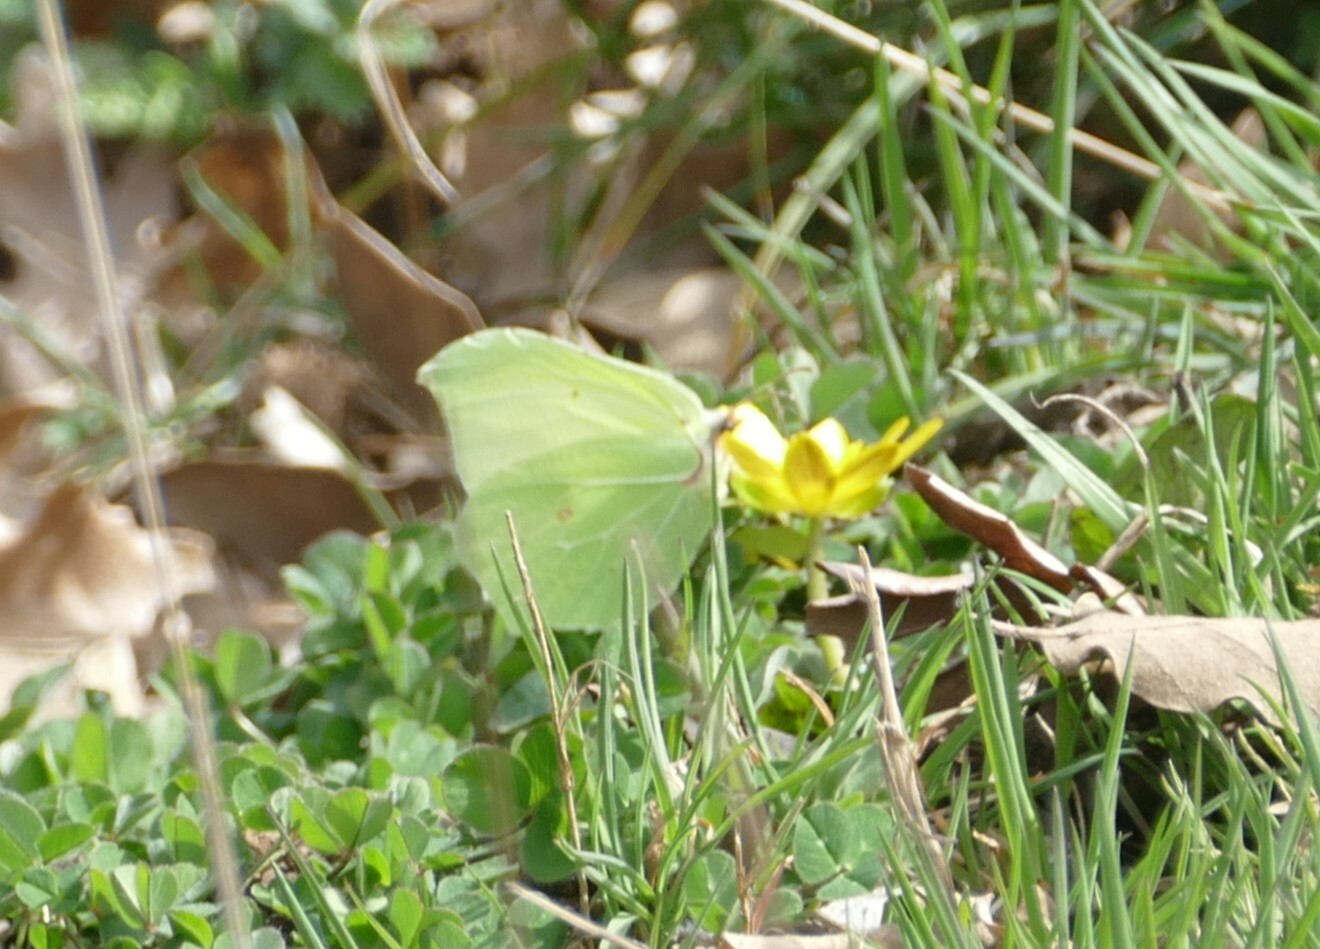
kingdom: Animalia
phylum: Arthropoda
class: Insecta
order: Lepidoptera
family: Pieridae
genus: Gonepteryx
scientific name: Gonepteryx rhamni
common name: Brimstone
